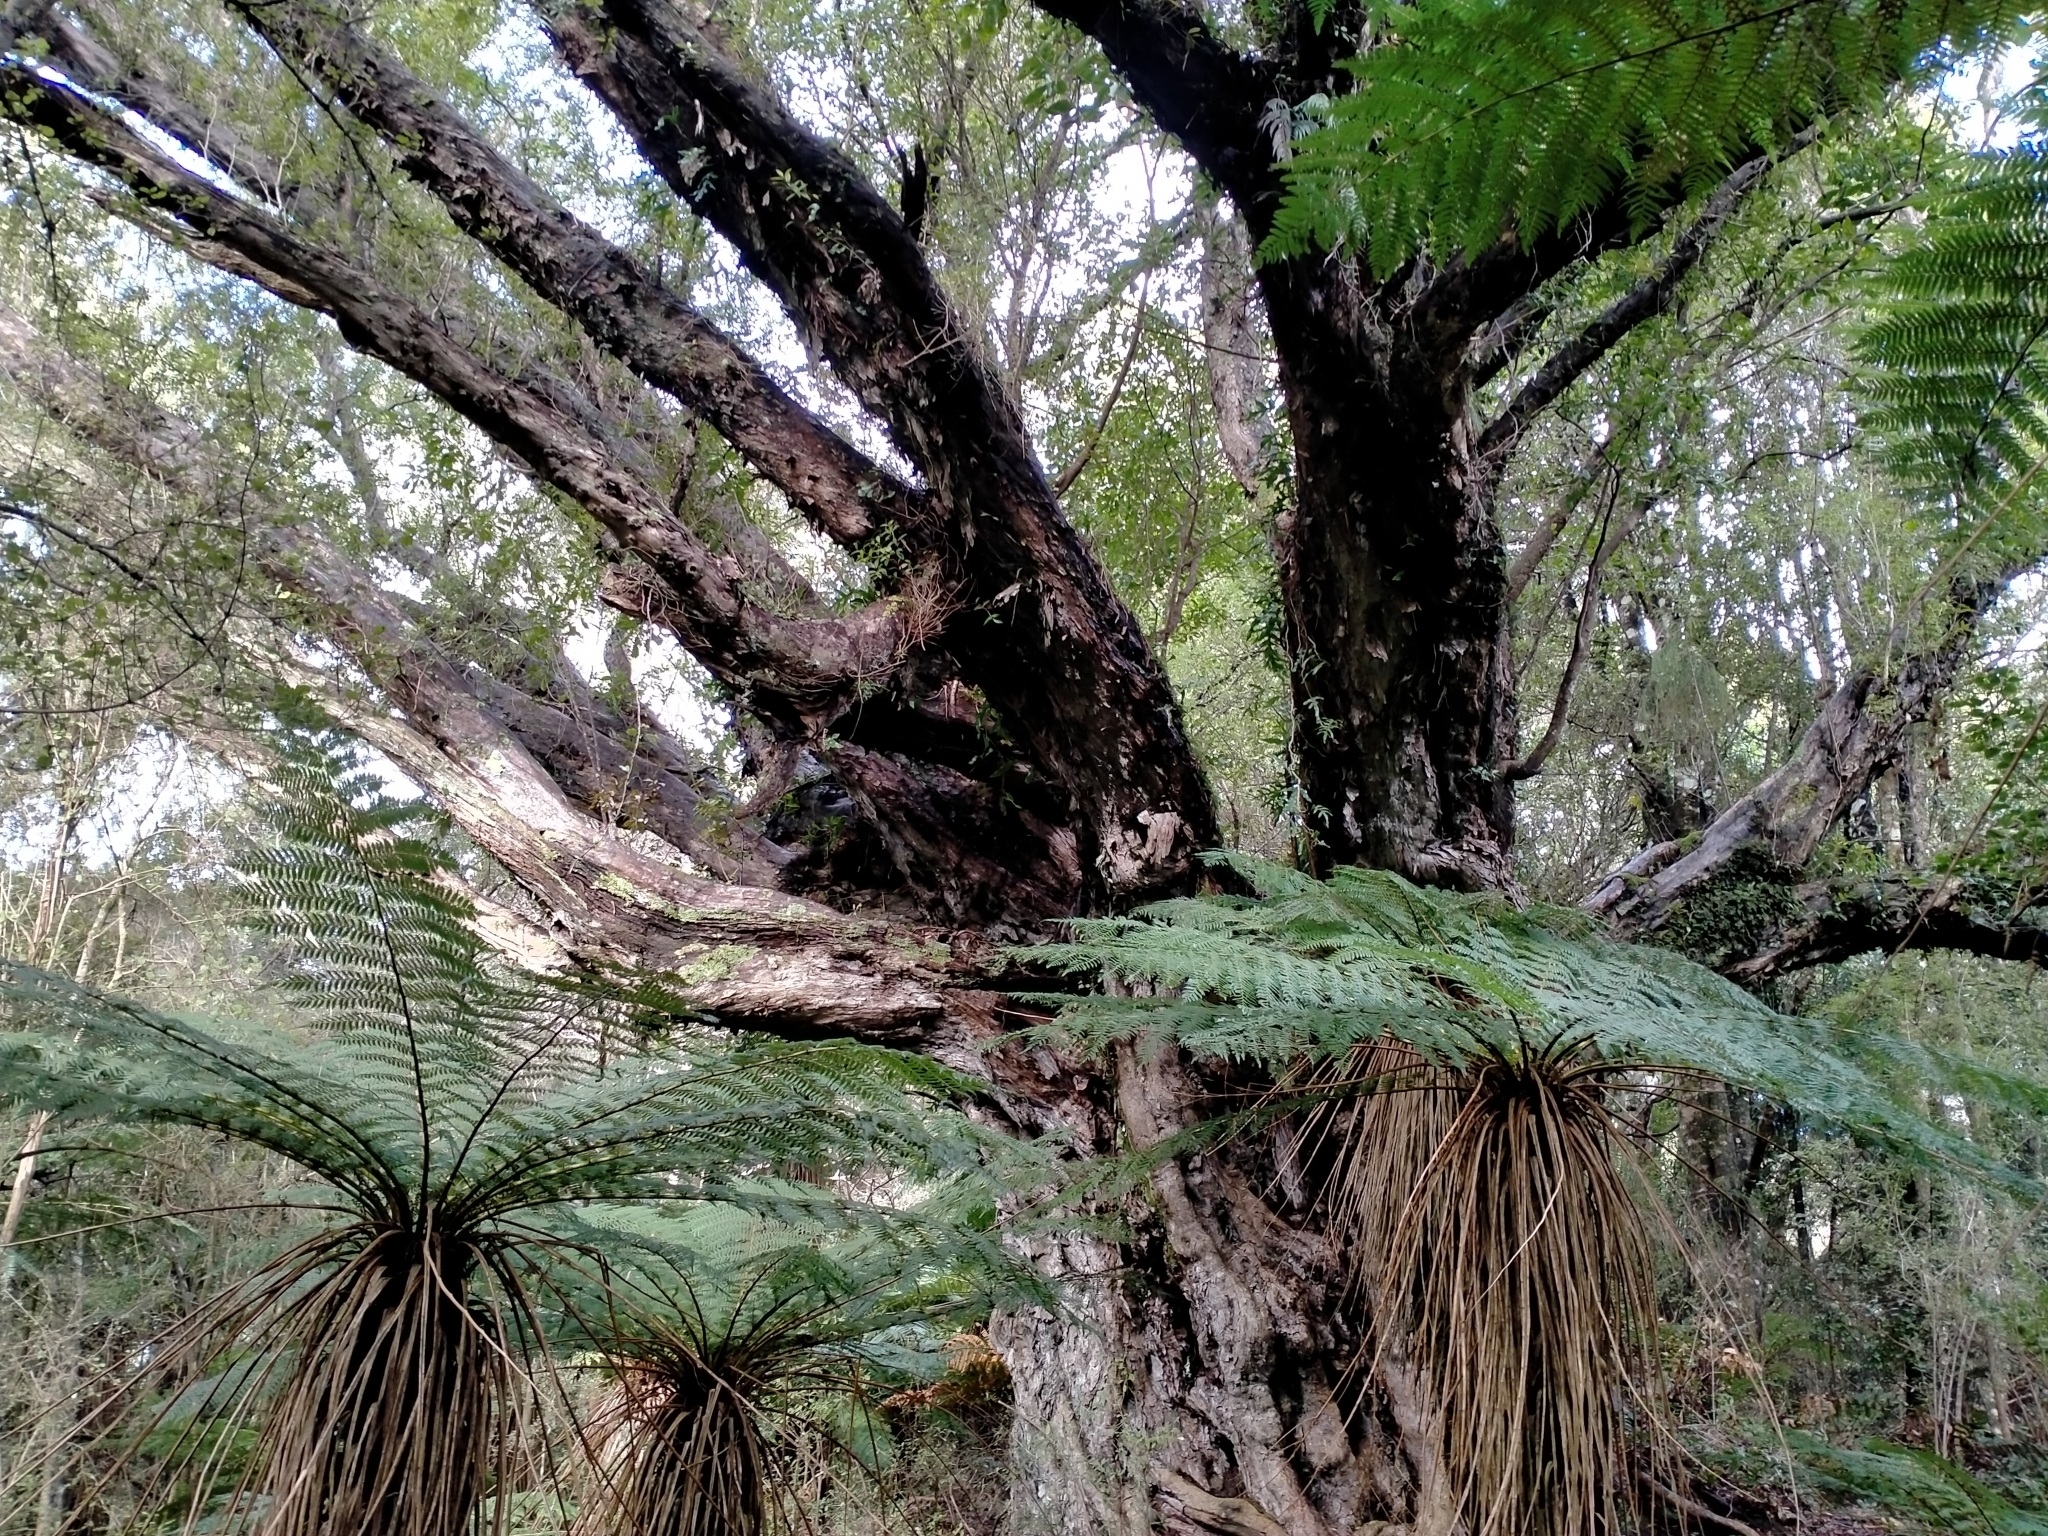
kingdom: Plantae
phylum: Tracheophyta
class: Magnoliopsida
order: Myrtales
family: Myrtaceae
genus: Metrosideros
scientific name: Metrosideros umbellata
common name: Southern rata
